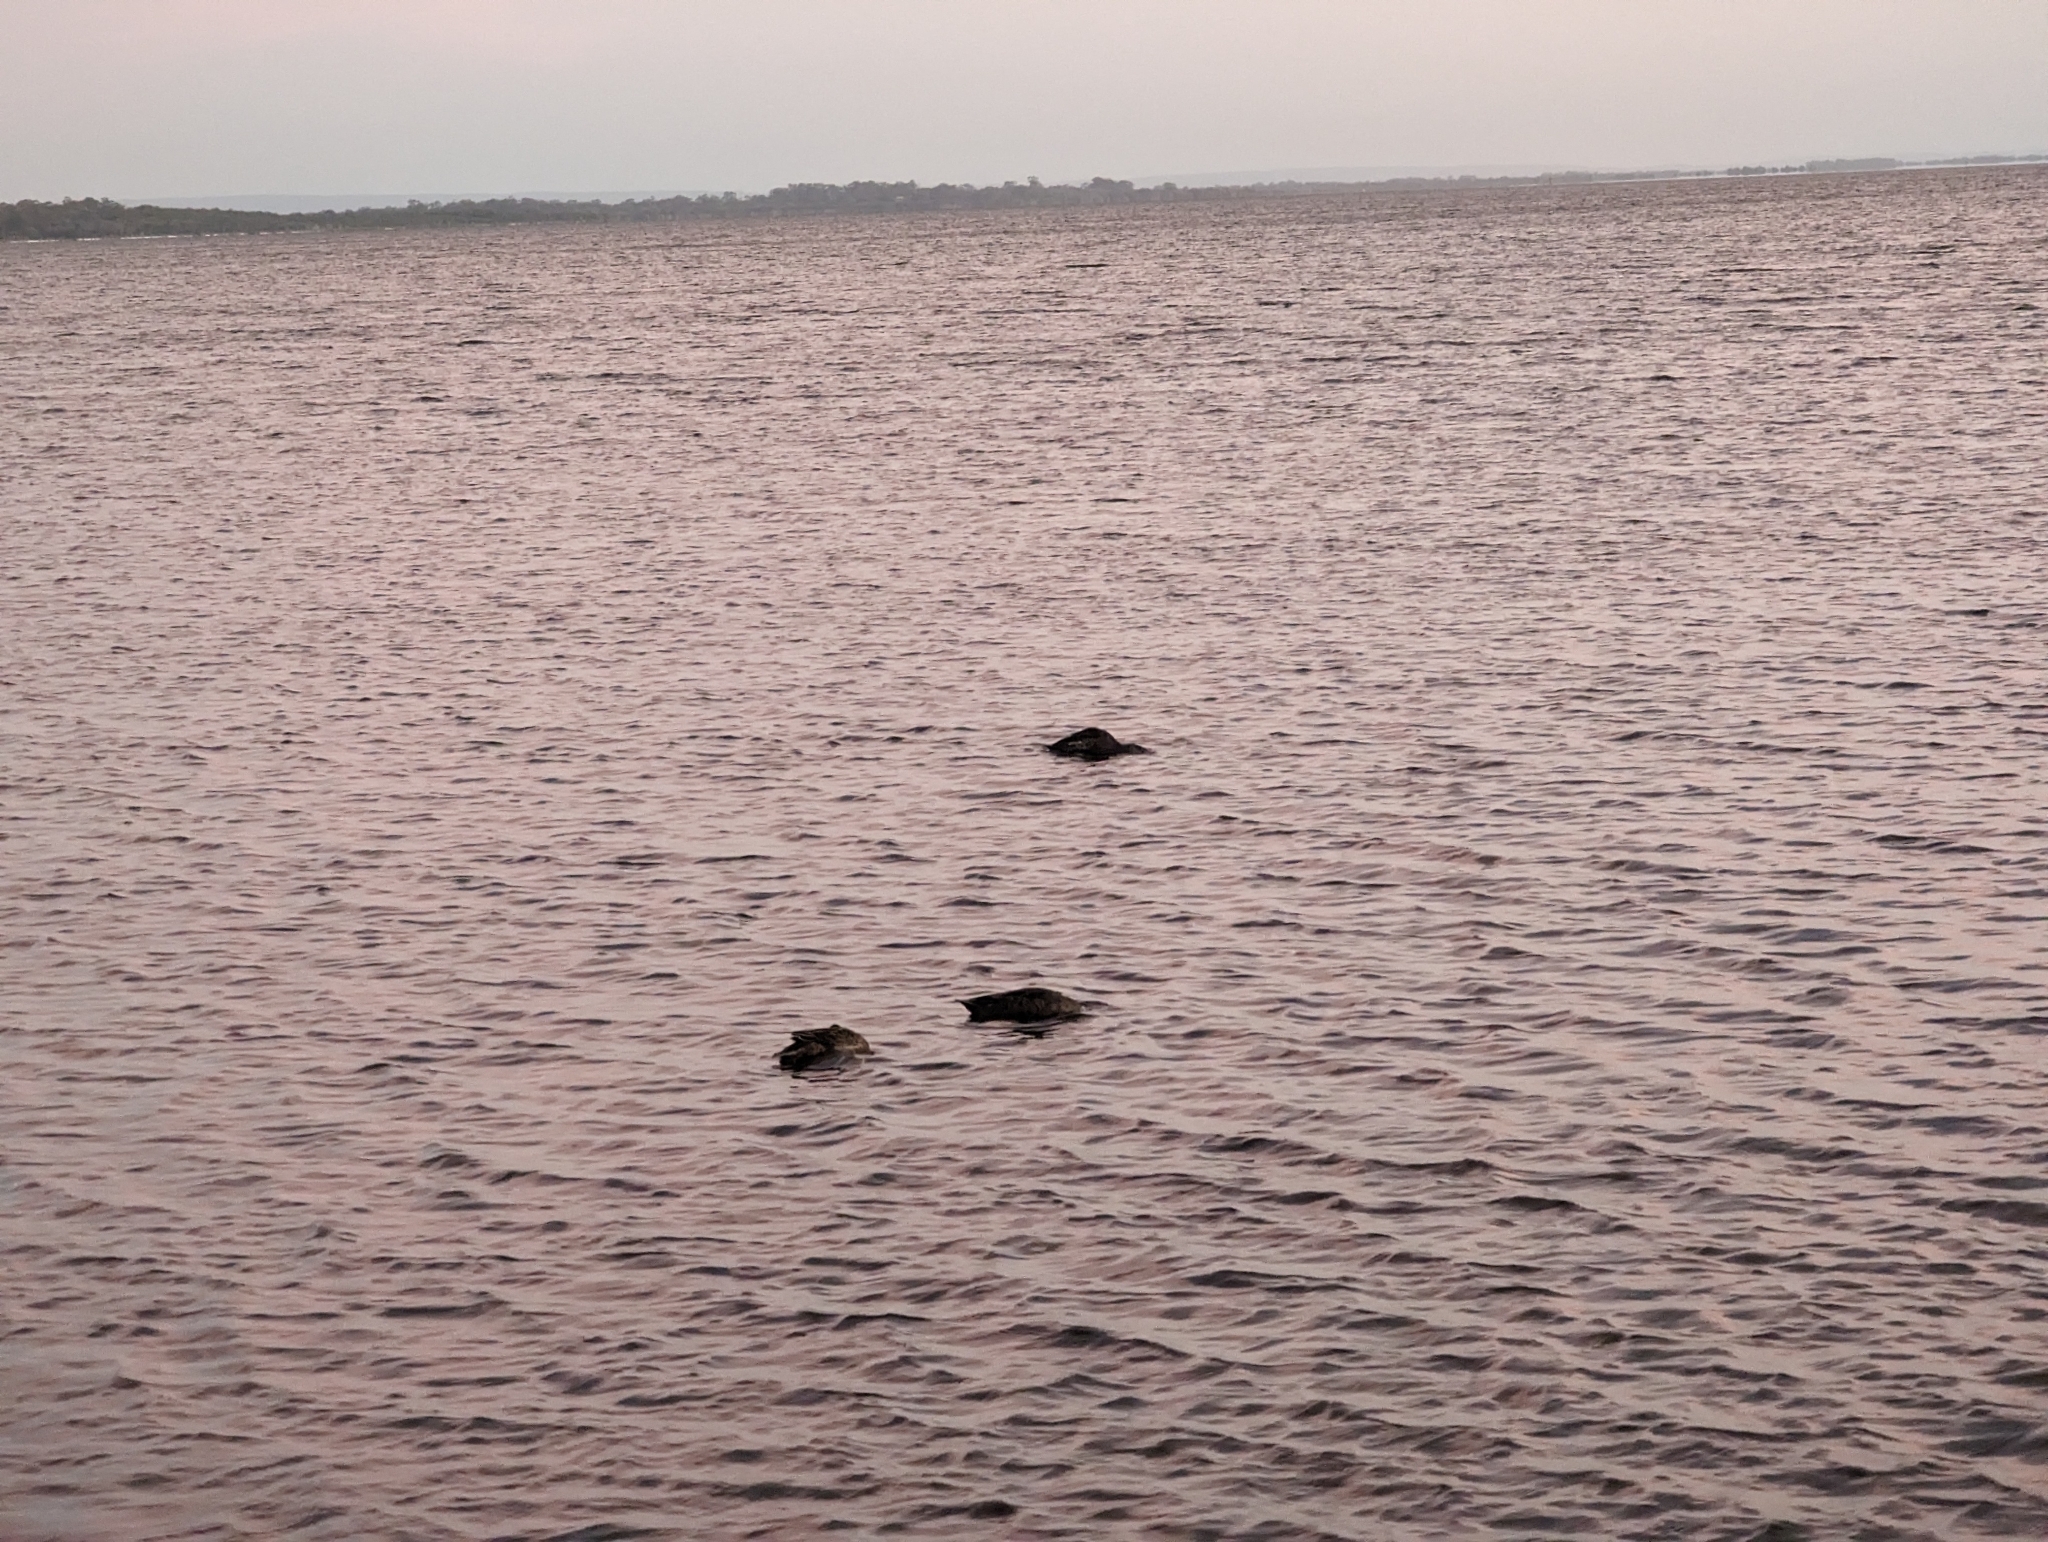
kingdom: Animalia
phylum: Chordata
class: Aves
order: Anseriformes
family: Anatidae
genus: Anas
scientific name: Anas superciliosa
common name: Pacific black duck
